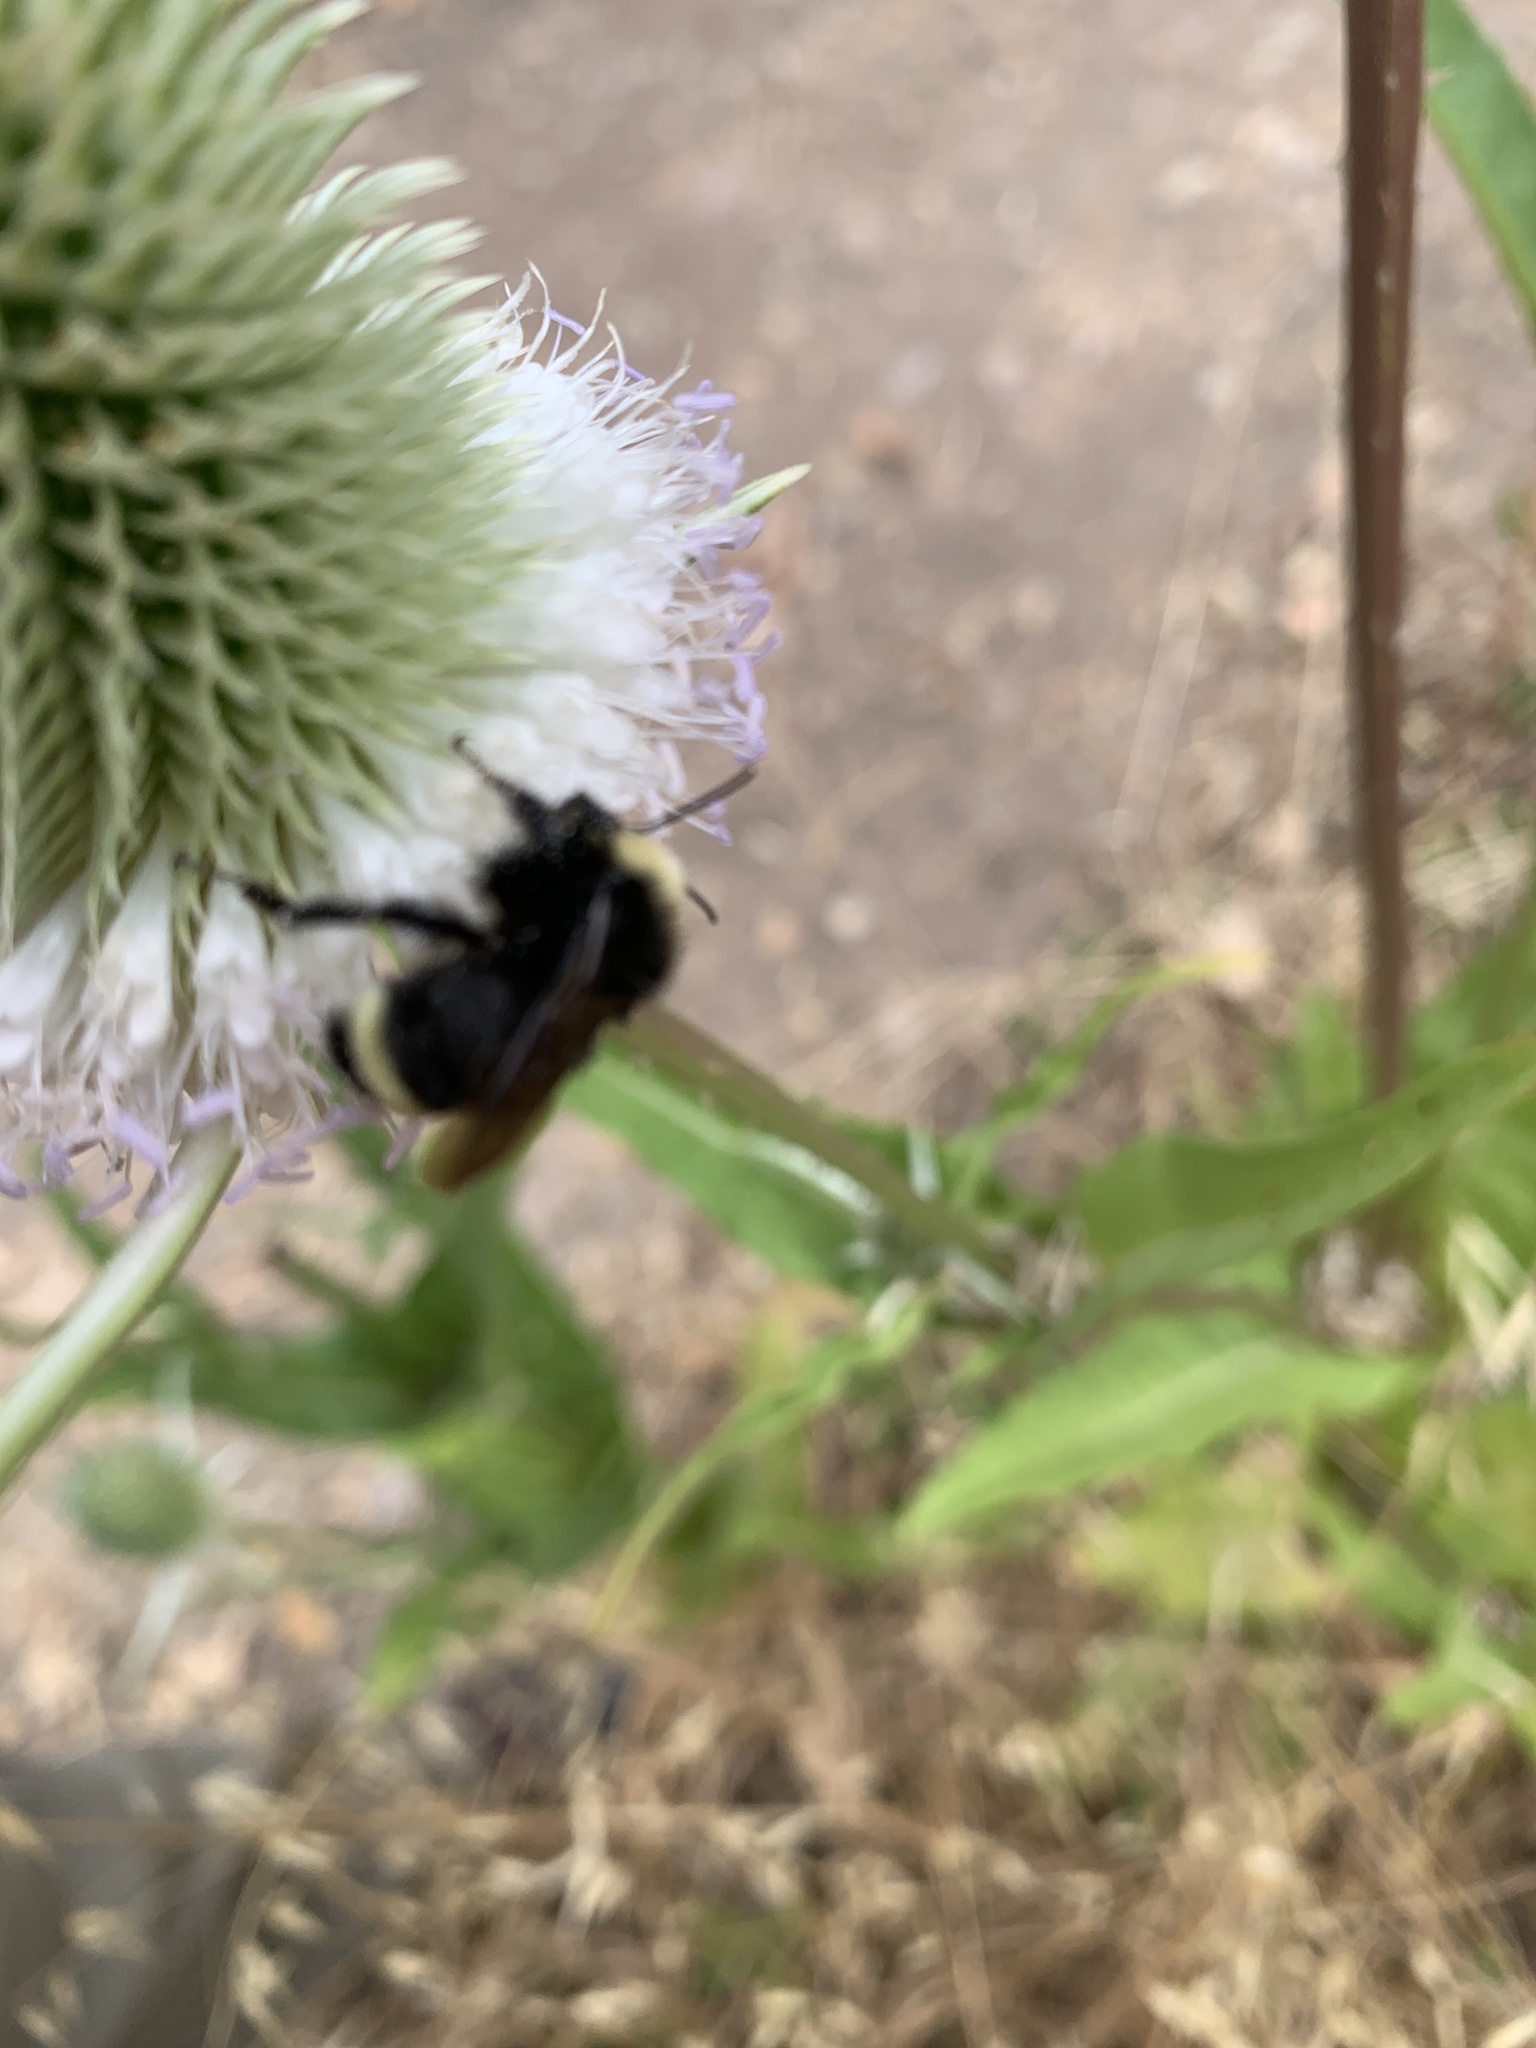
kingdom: Animalia
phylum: Arthropoda
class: Insecta
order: Hymenoptera
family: Apidae
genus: Bombus
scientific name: Bombus vosnesenskii
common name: Vosnesensky bumble bee
